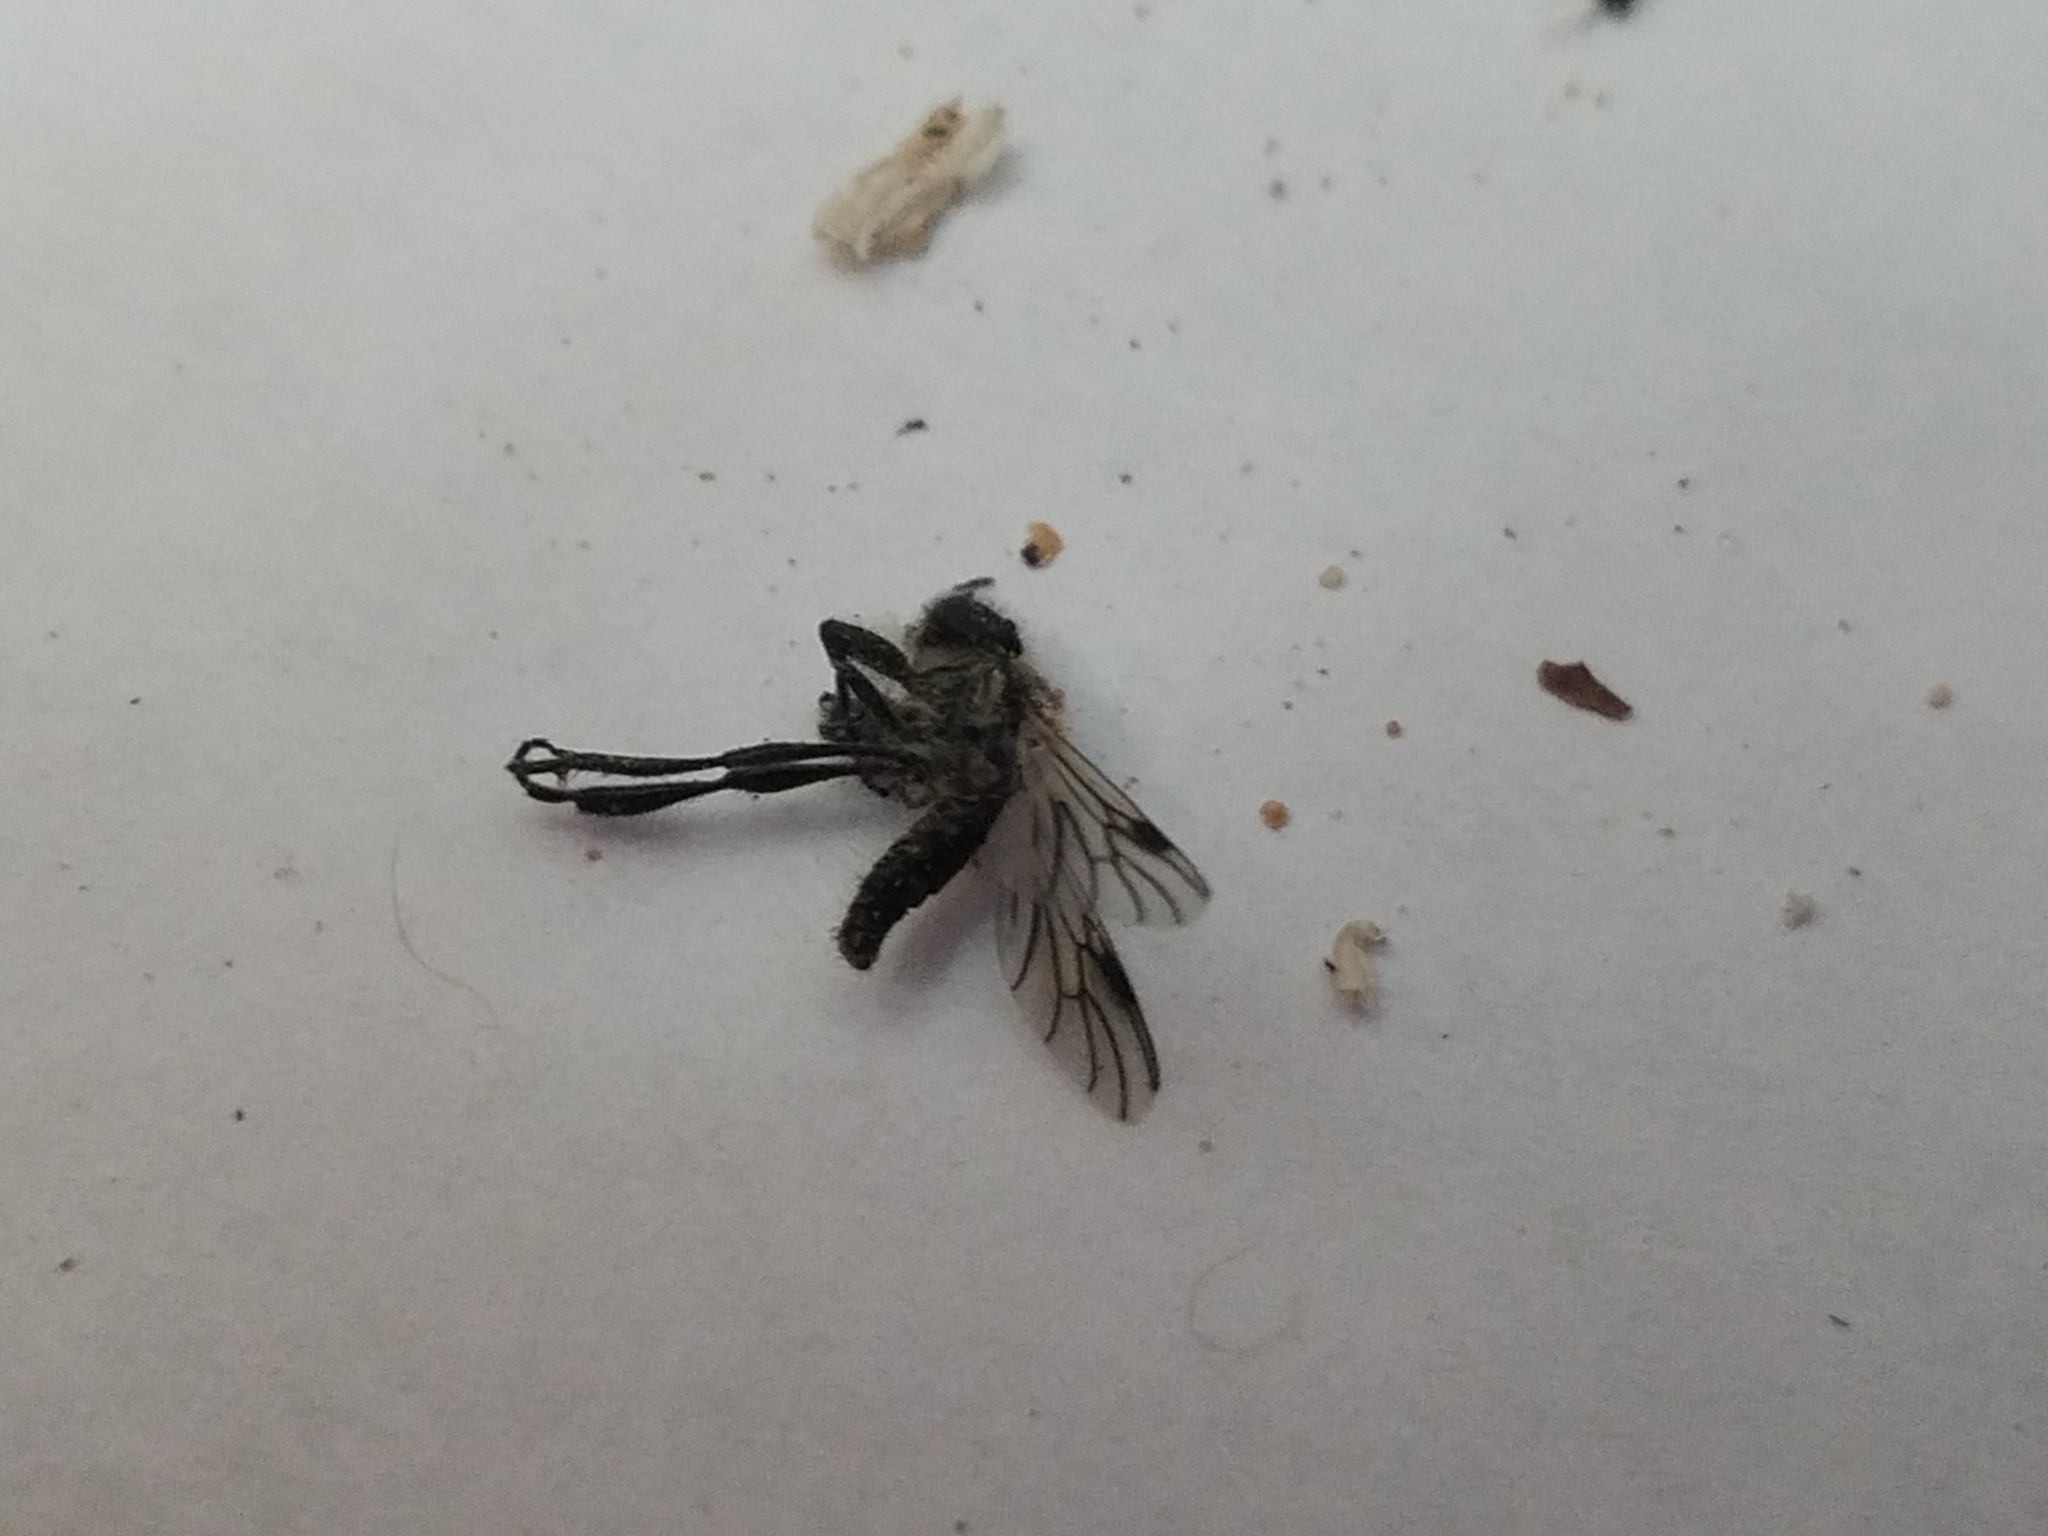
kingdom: Animalia
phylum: Arthropoda
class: Insecta
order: Diptera
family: Bibionidae
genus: Bibio
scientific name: Bibio albipennis
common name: White-winged march fly
